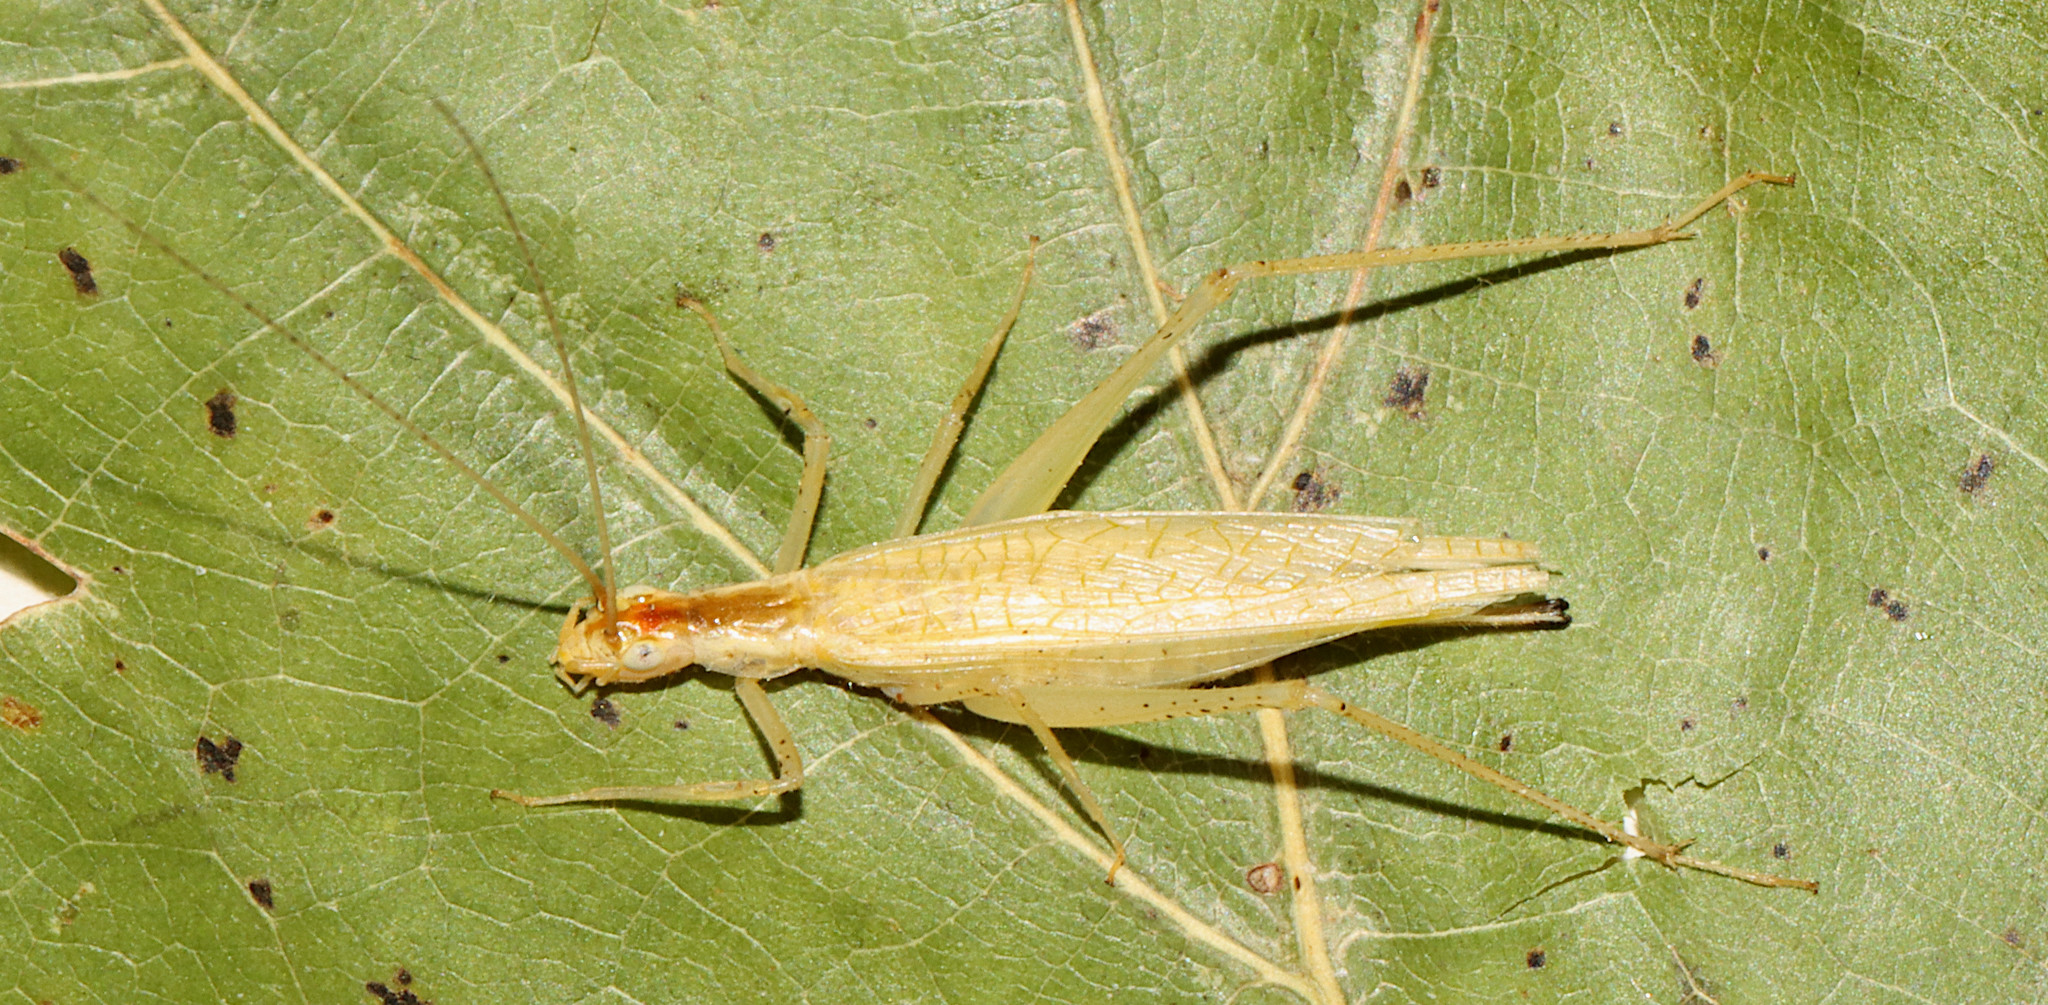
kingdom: Animalia
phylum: Arthropoda
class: Insecta
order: Orthoptera
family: Gryllidae
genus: Oecanthus
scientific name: Oecanthus niveus
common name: Narrow-winged tree cricket
